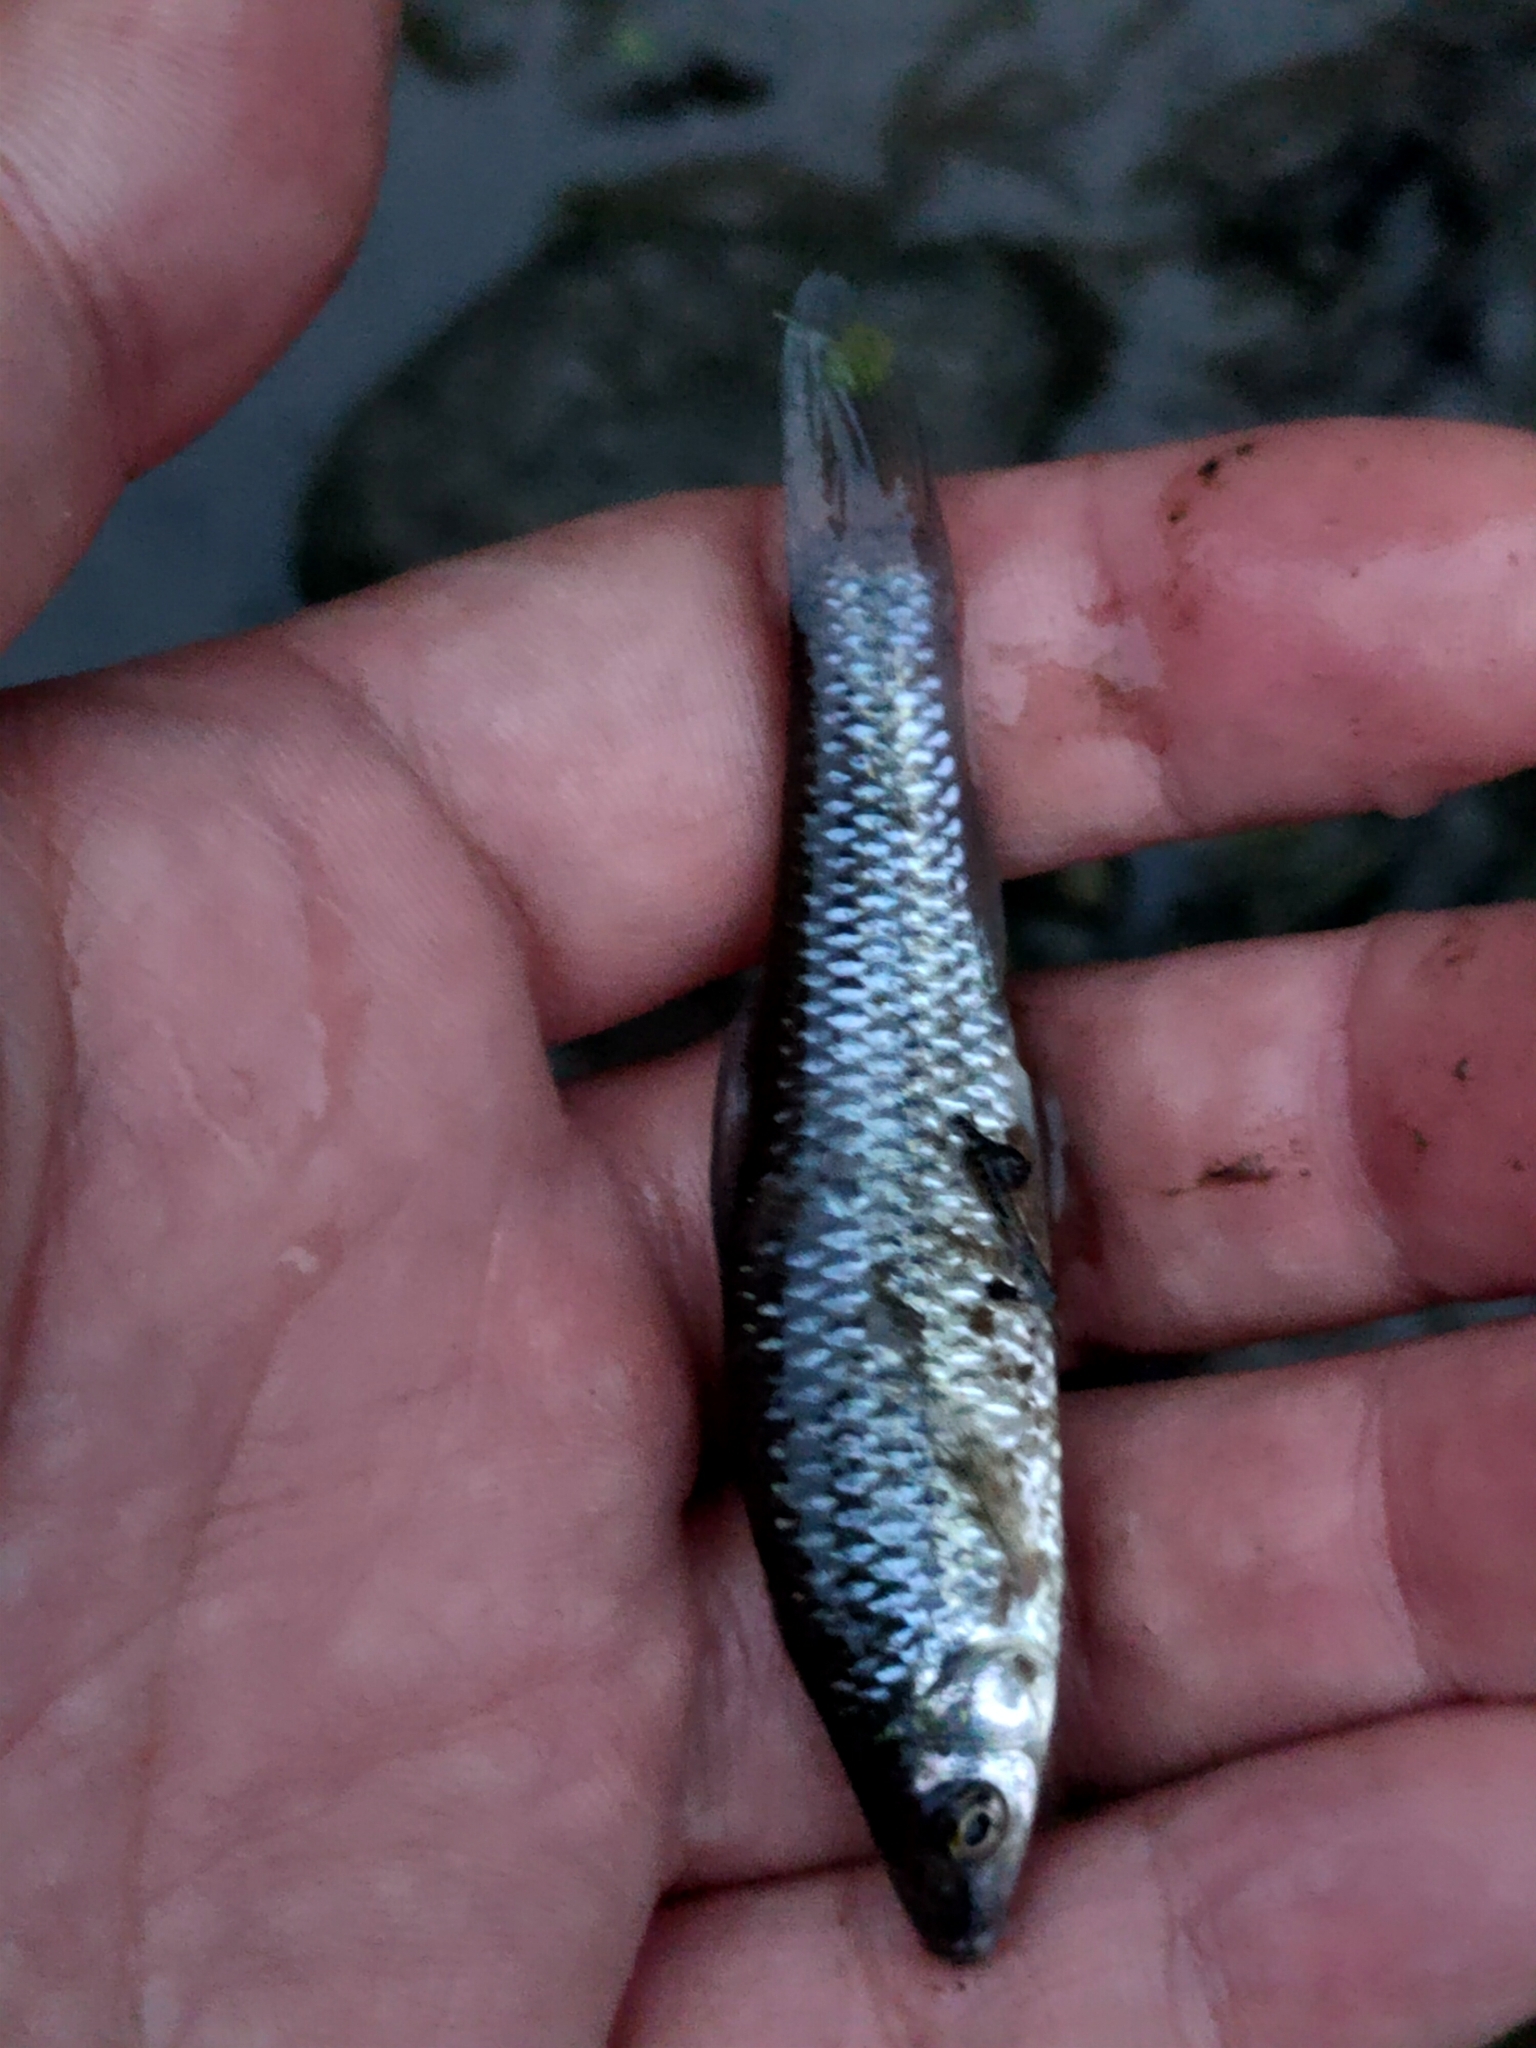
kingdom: Animalia
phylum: Chordata
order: Cypriniformes
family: Cyprinidae
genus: Pseudorasbora
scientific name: Pseudorasbora parva
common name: Topmouth gudgeon
